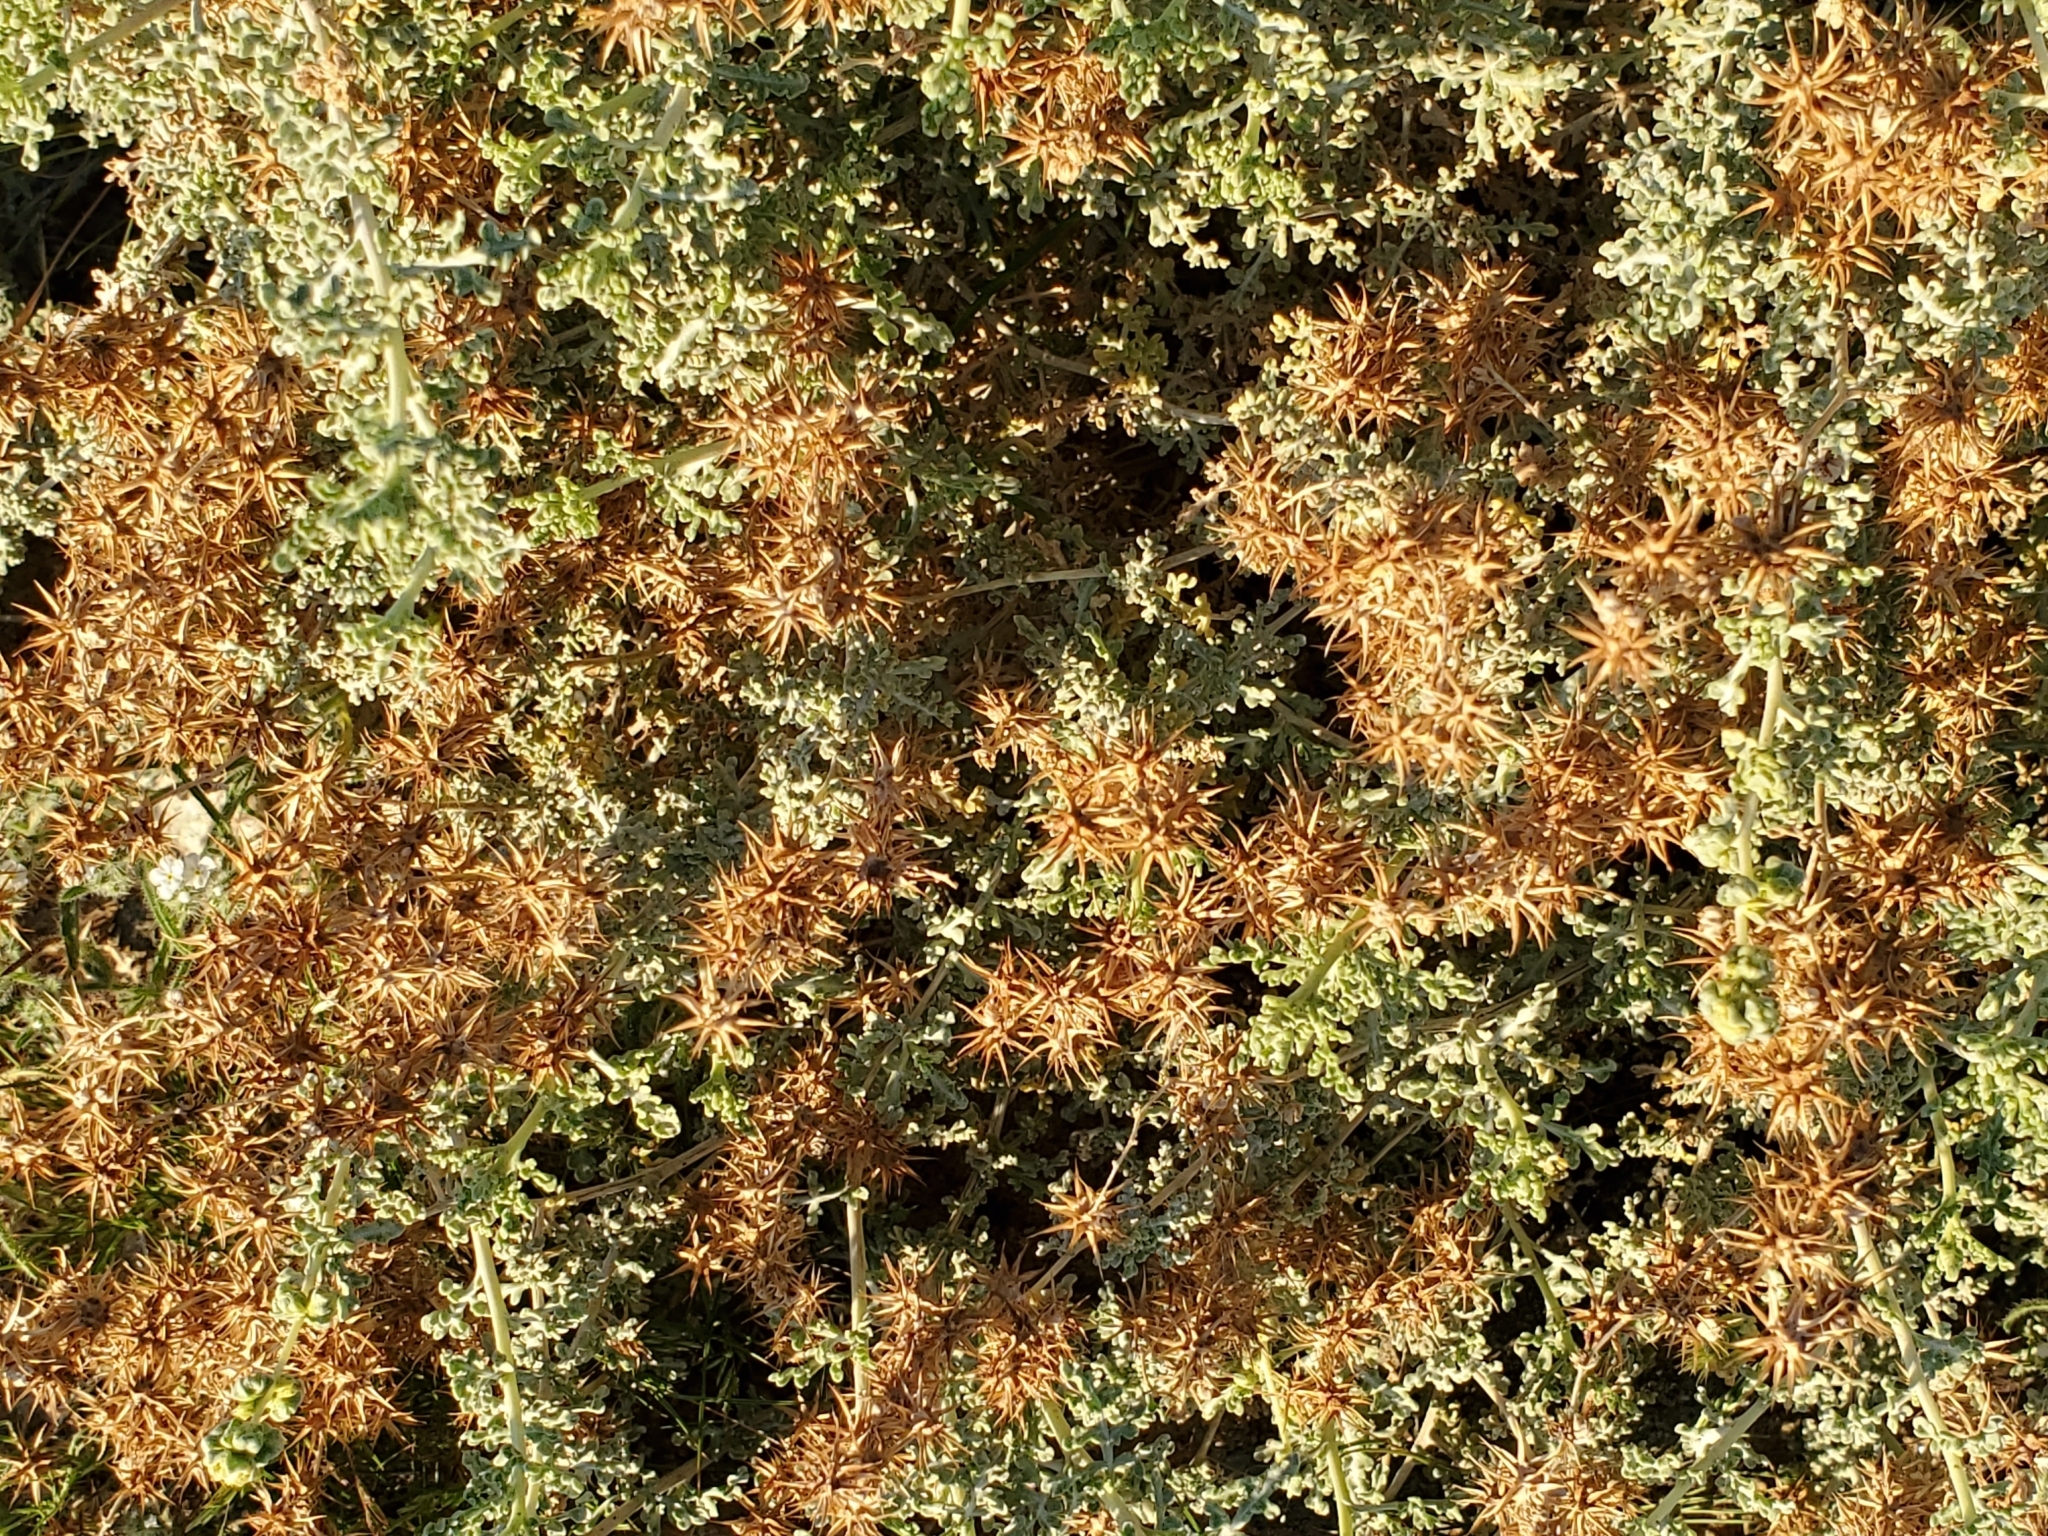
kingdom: Plantae
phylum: Tracheophyta
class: Magnoliopsida
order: Asterales
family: Asteraceae
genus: Ambrosia
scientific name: Ambrosia dumosa
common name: Bur-sage
